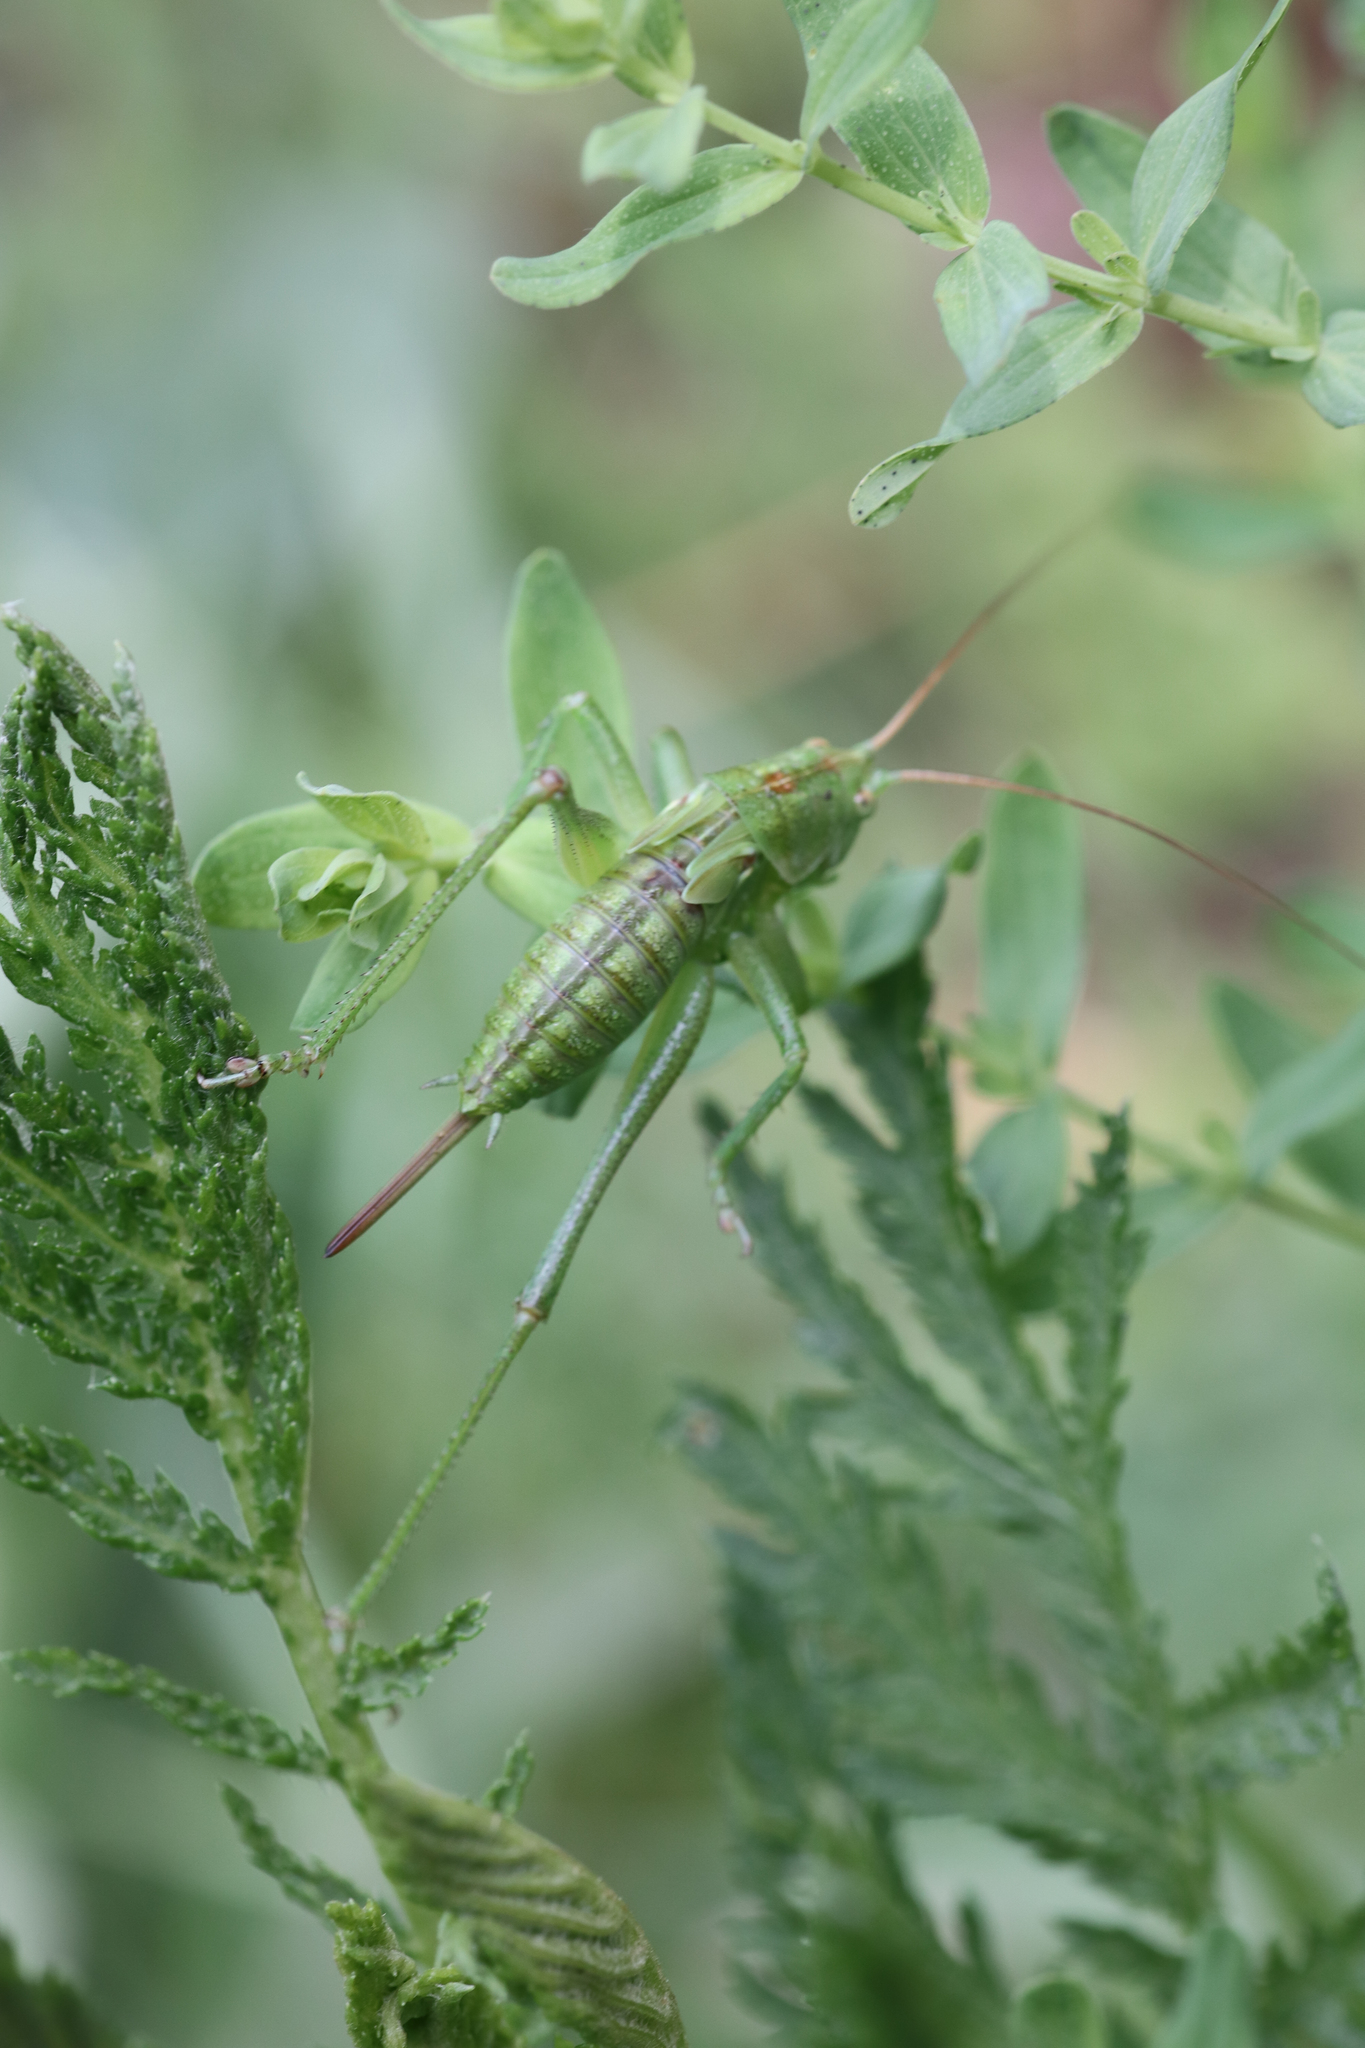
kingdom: Animalia
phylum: Arthropoda
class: Insecta
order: Orthoptera
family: Tettigoniidae
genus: Tettigonia
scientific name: Tettigonia viridissima
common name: Great green bush-cricket
